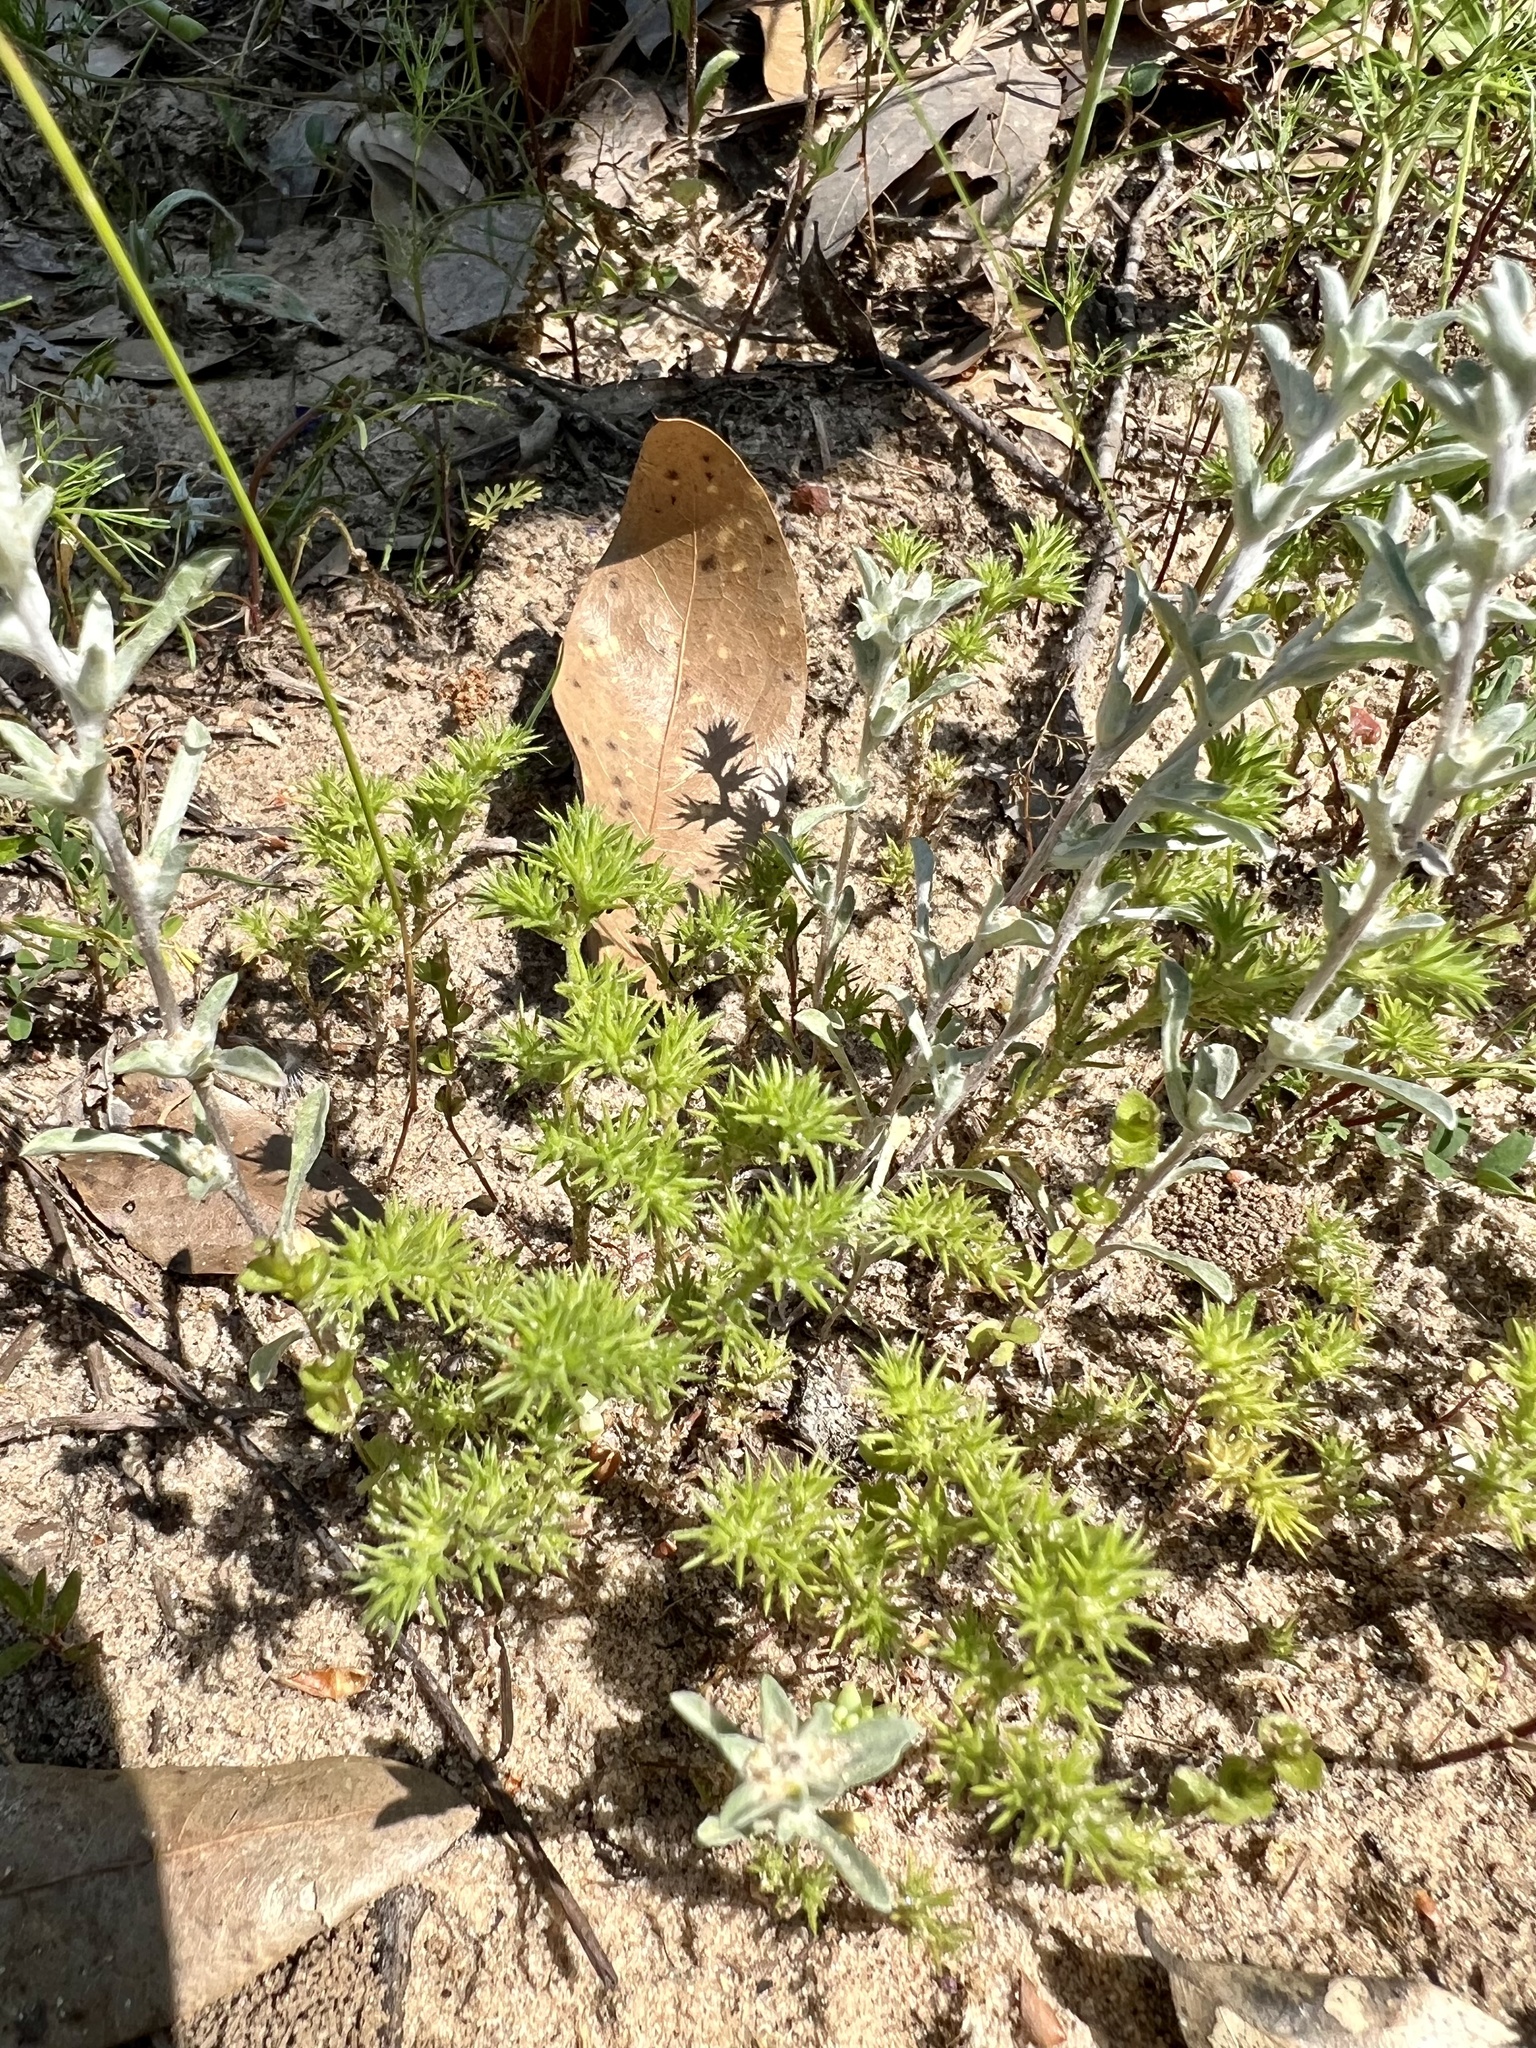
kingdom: Plantae
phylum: Tracheophyta
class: Magnoliopsida
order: Caryophyllales
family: Caryophyllaceae
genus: Loeflingia
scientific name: Loeflingia squarrosa
